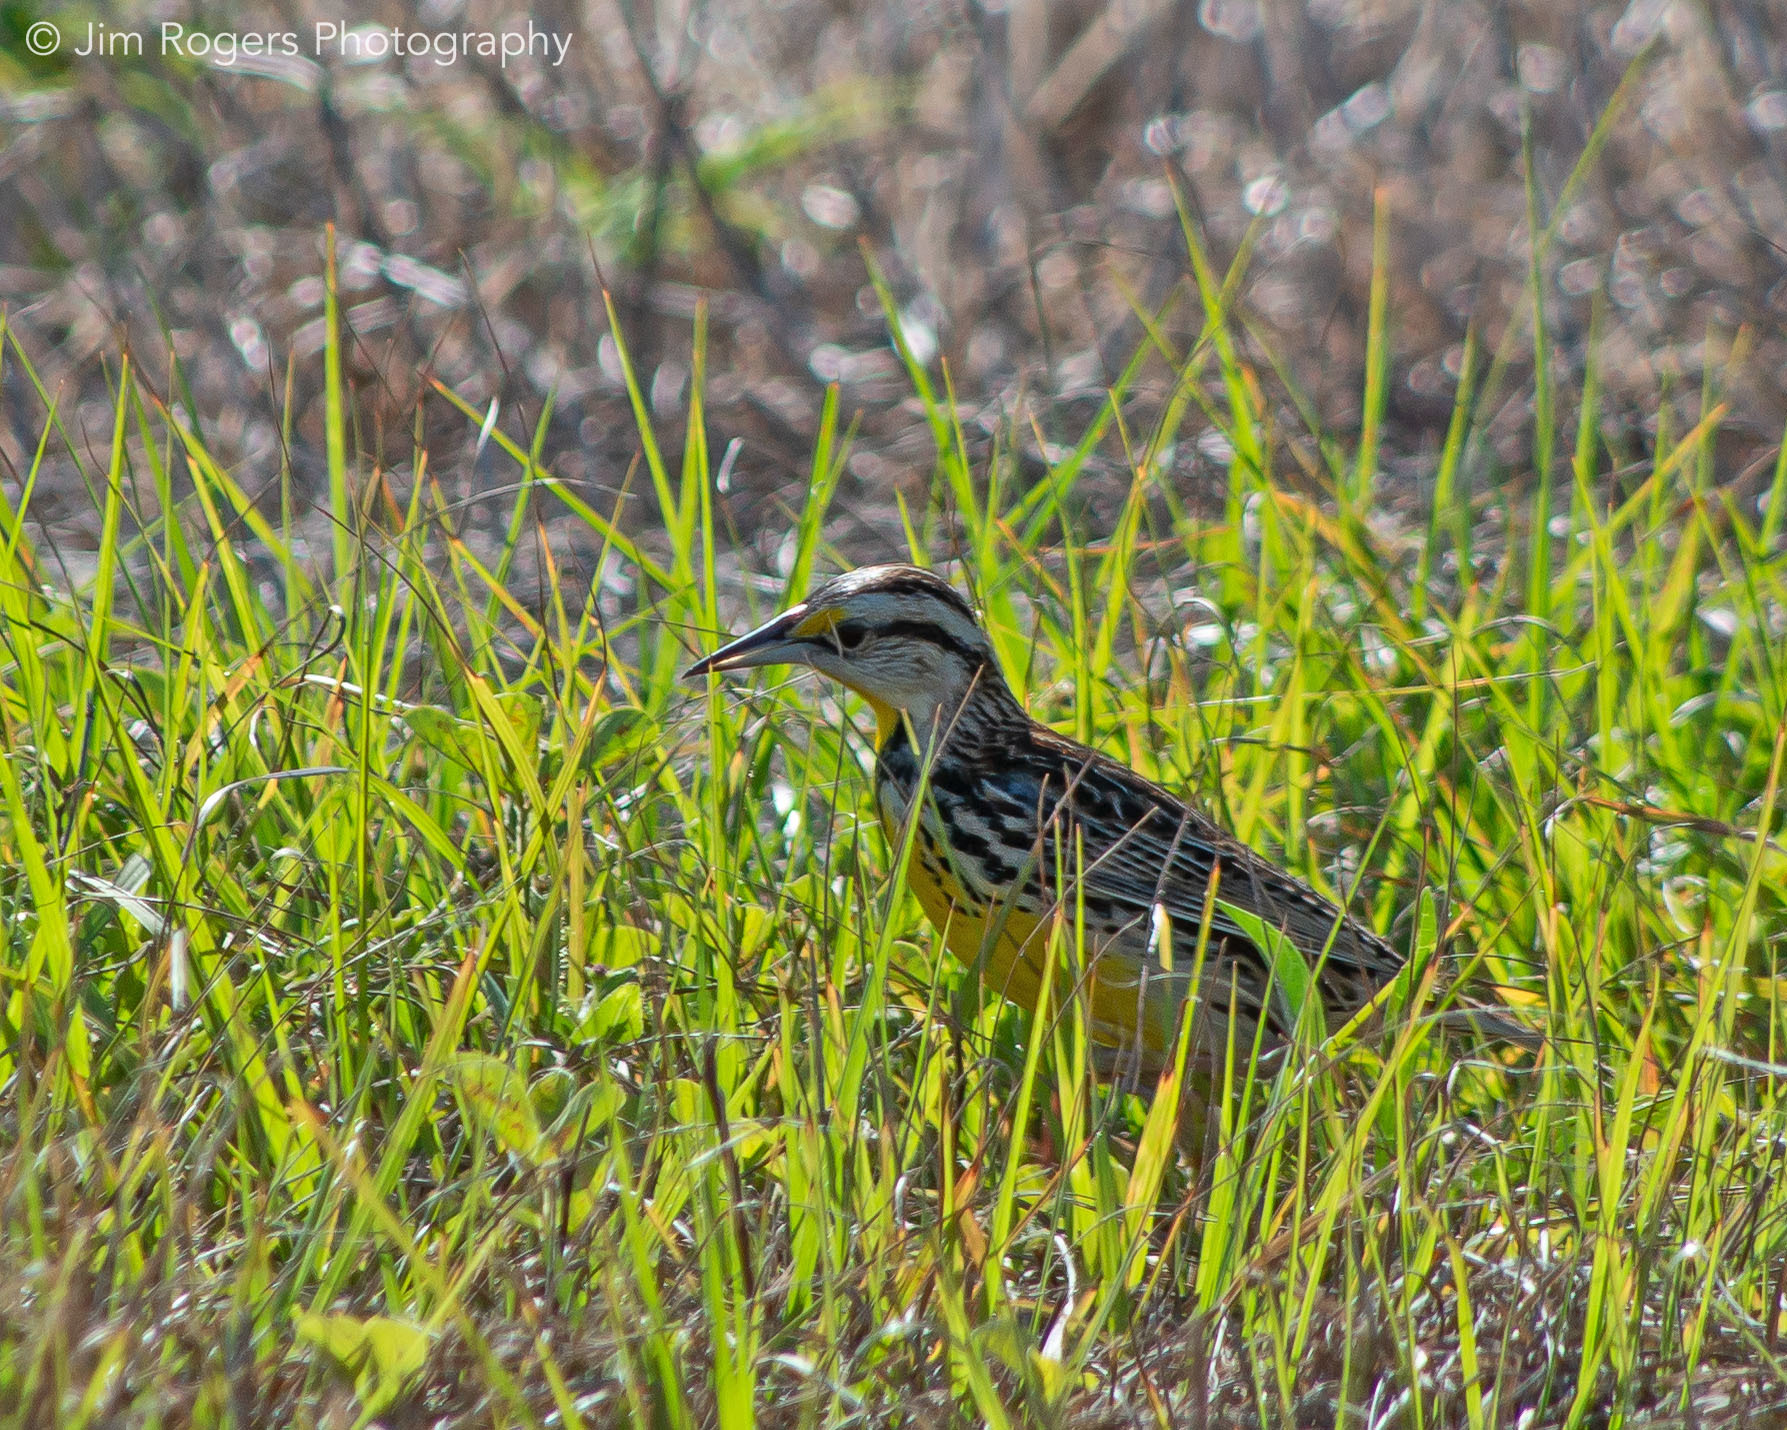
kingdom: Animalia
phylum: Chordata
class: Aves
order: Passeriformes
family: Icteridae
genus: Sturnella
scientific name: Sturnella magna
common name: Eastern meadowlark
